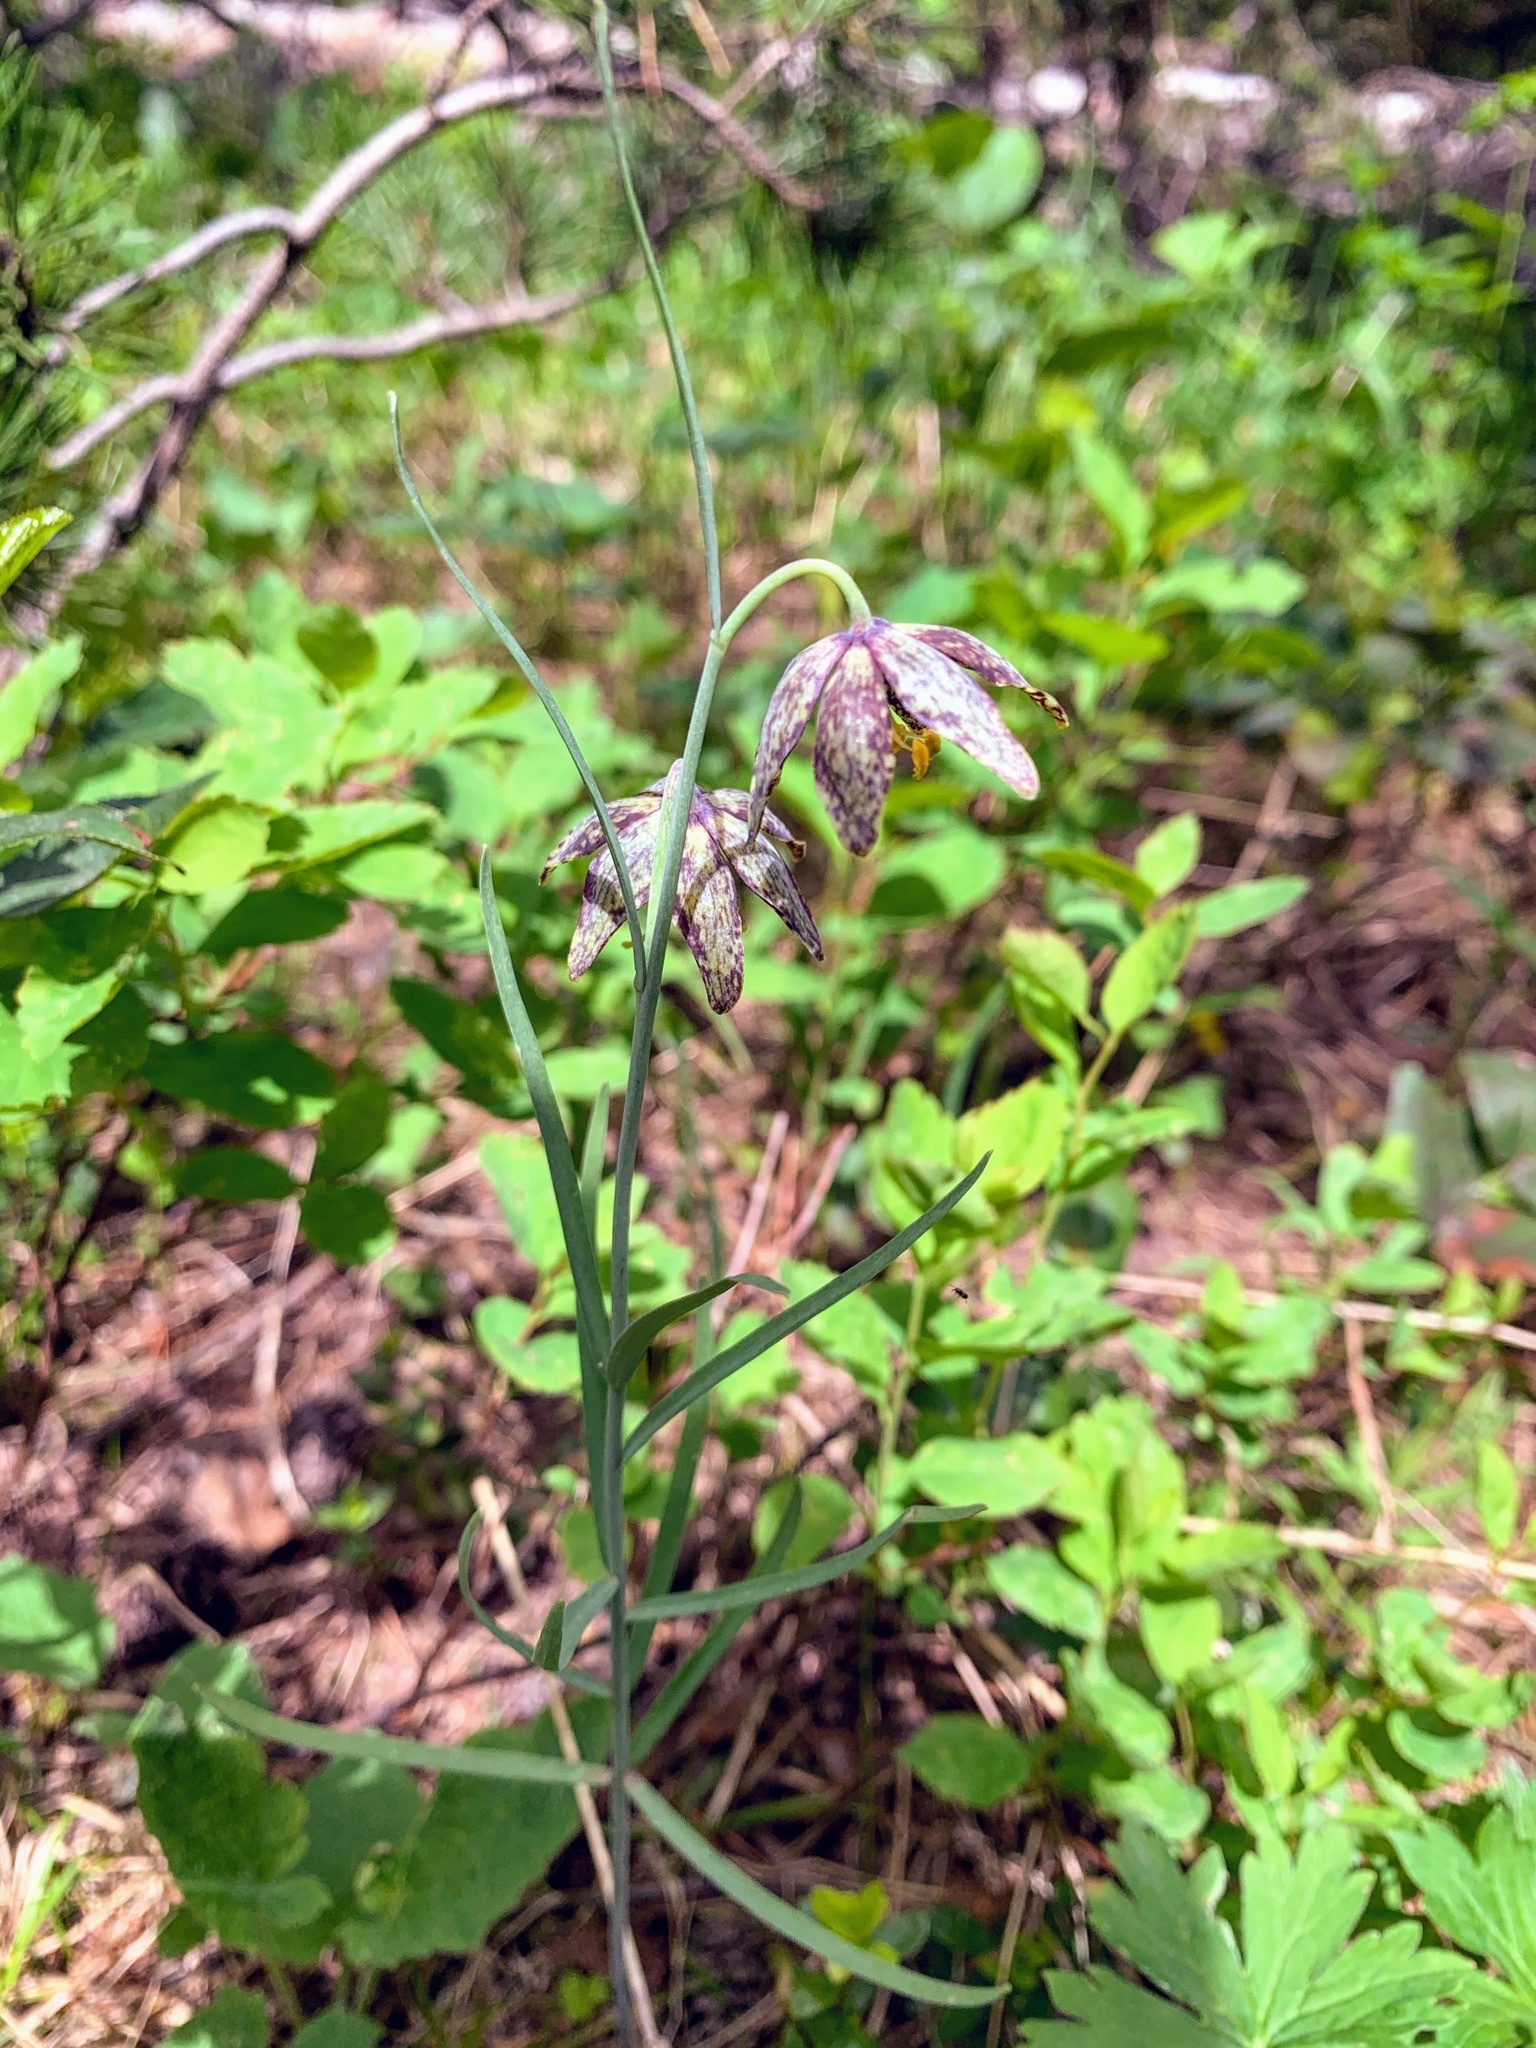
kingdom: Plantae
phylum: Tracheophyta
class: Liliopsida
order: Liliales
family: Liliaceae
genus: Fritillaria
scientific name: Fritillaria atropurpurea
